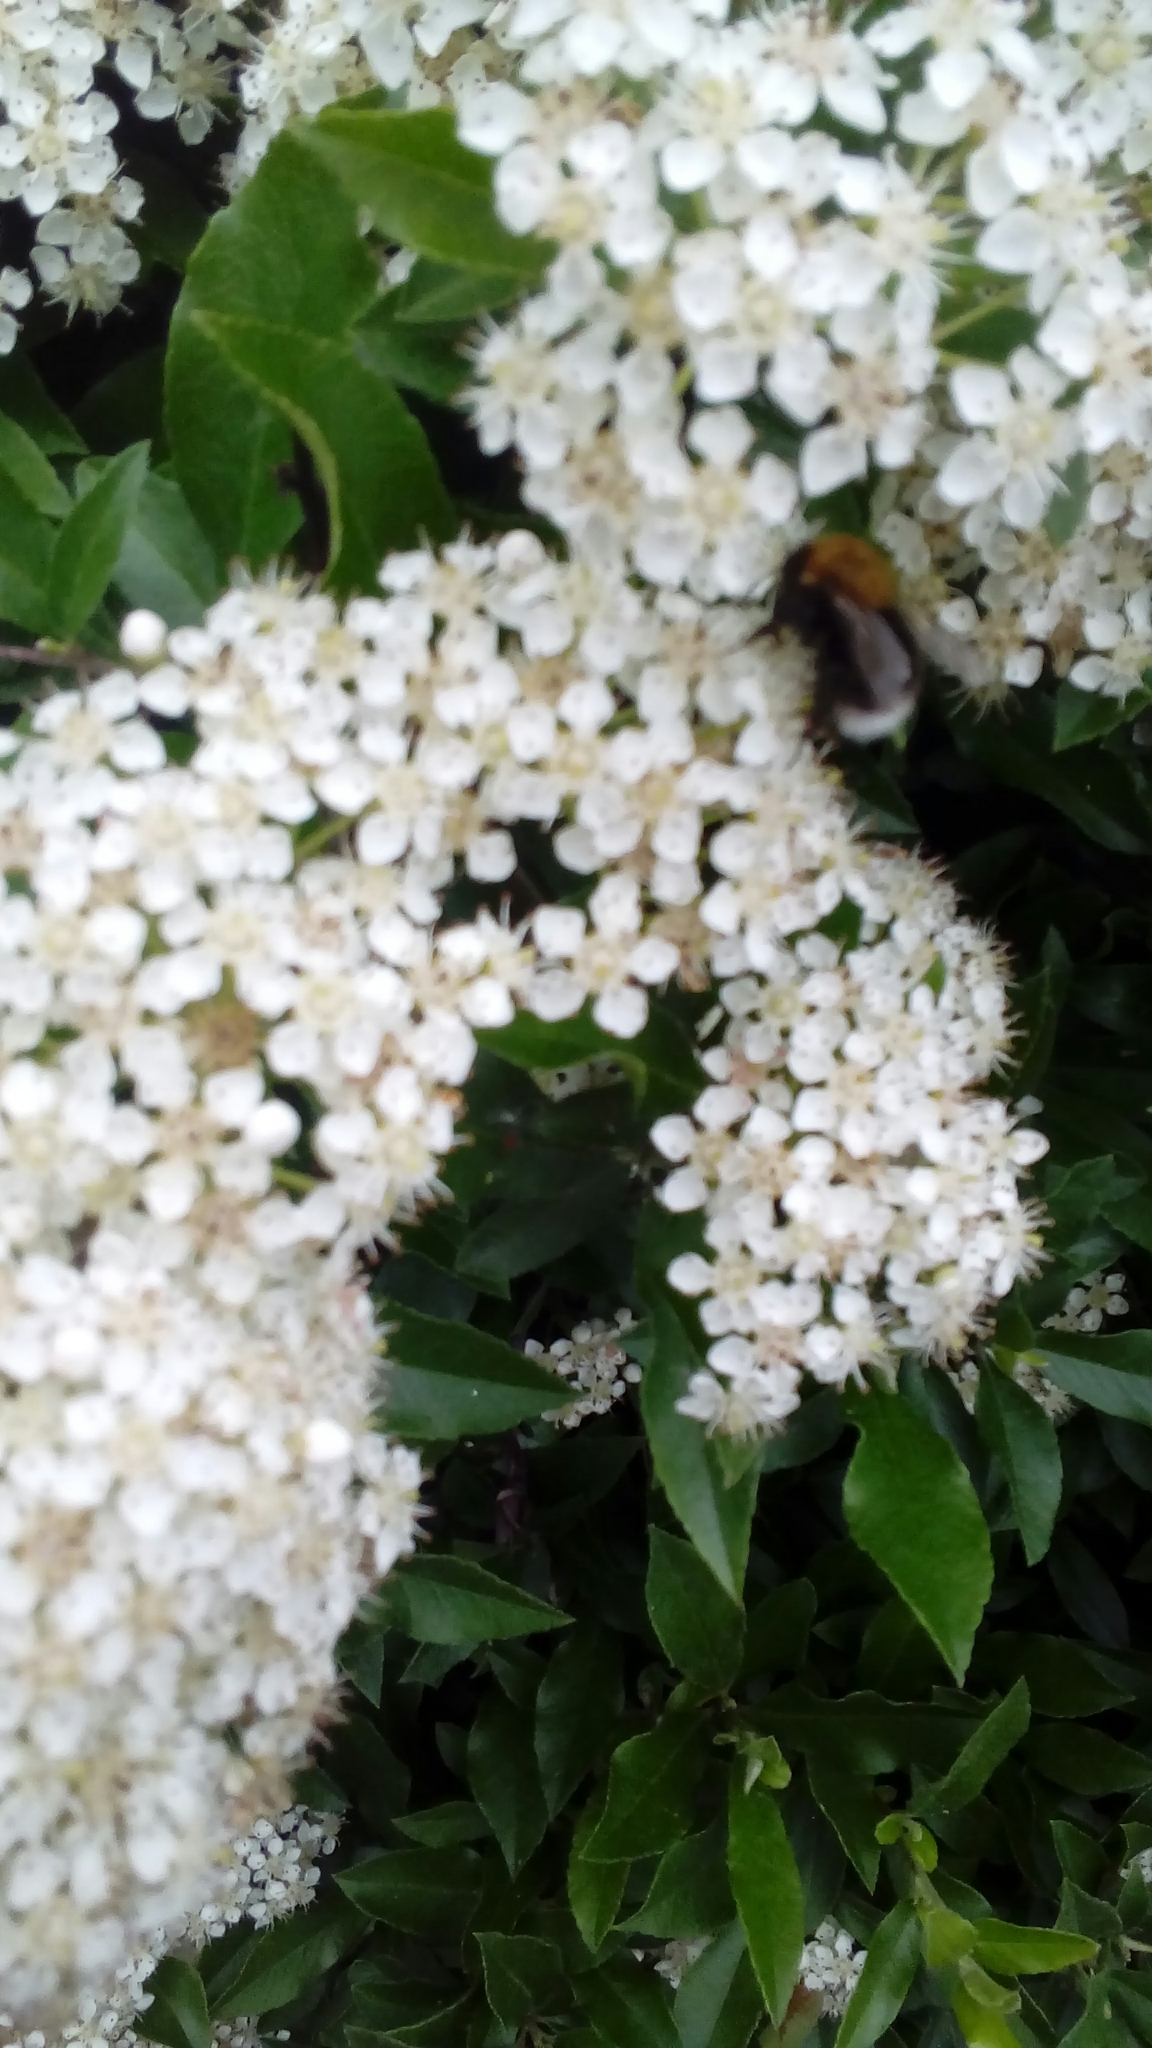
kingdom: Animalia
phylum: Arthropoda
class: Insecta
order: Hymenoptera
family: Apidae
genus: Bombus
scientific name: Bombus hypnorum
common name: New garden bumblebee
